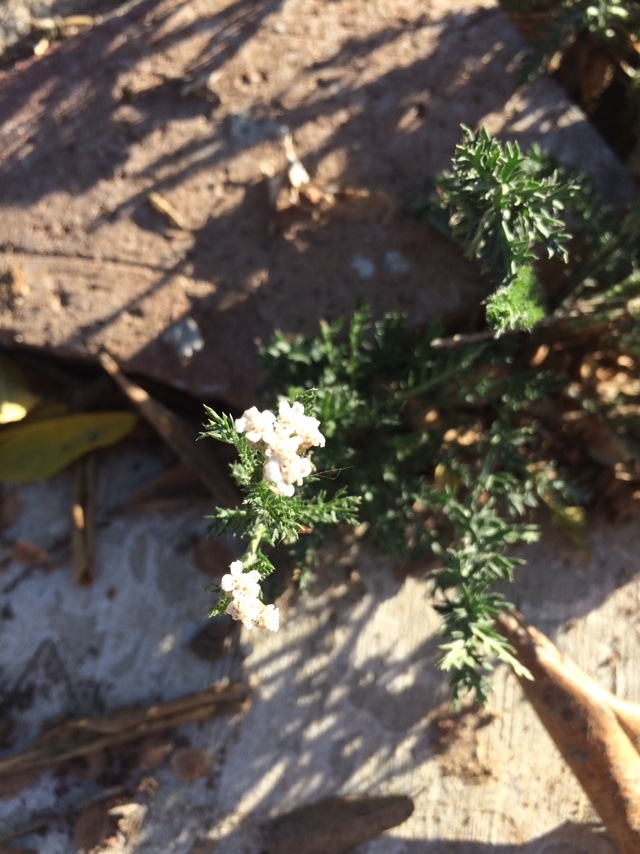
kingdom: Plantae
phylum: Tracheophyta
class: Magnoliopsida
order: Asterales
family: Asteraceae
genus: Achillea
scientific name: Achillea millefolium
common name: Yarrow
